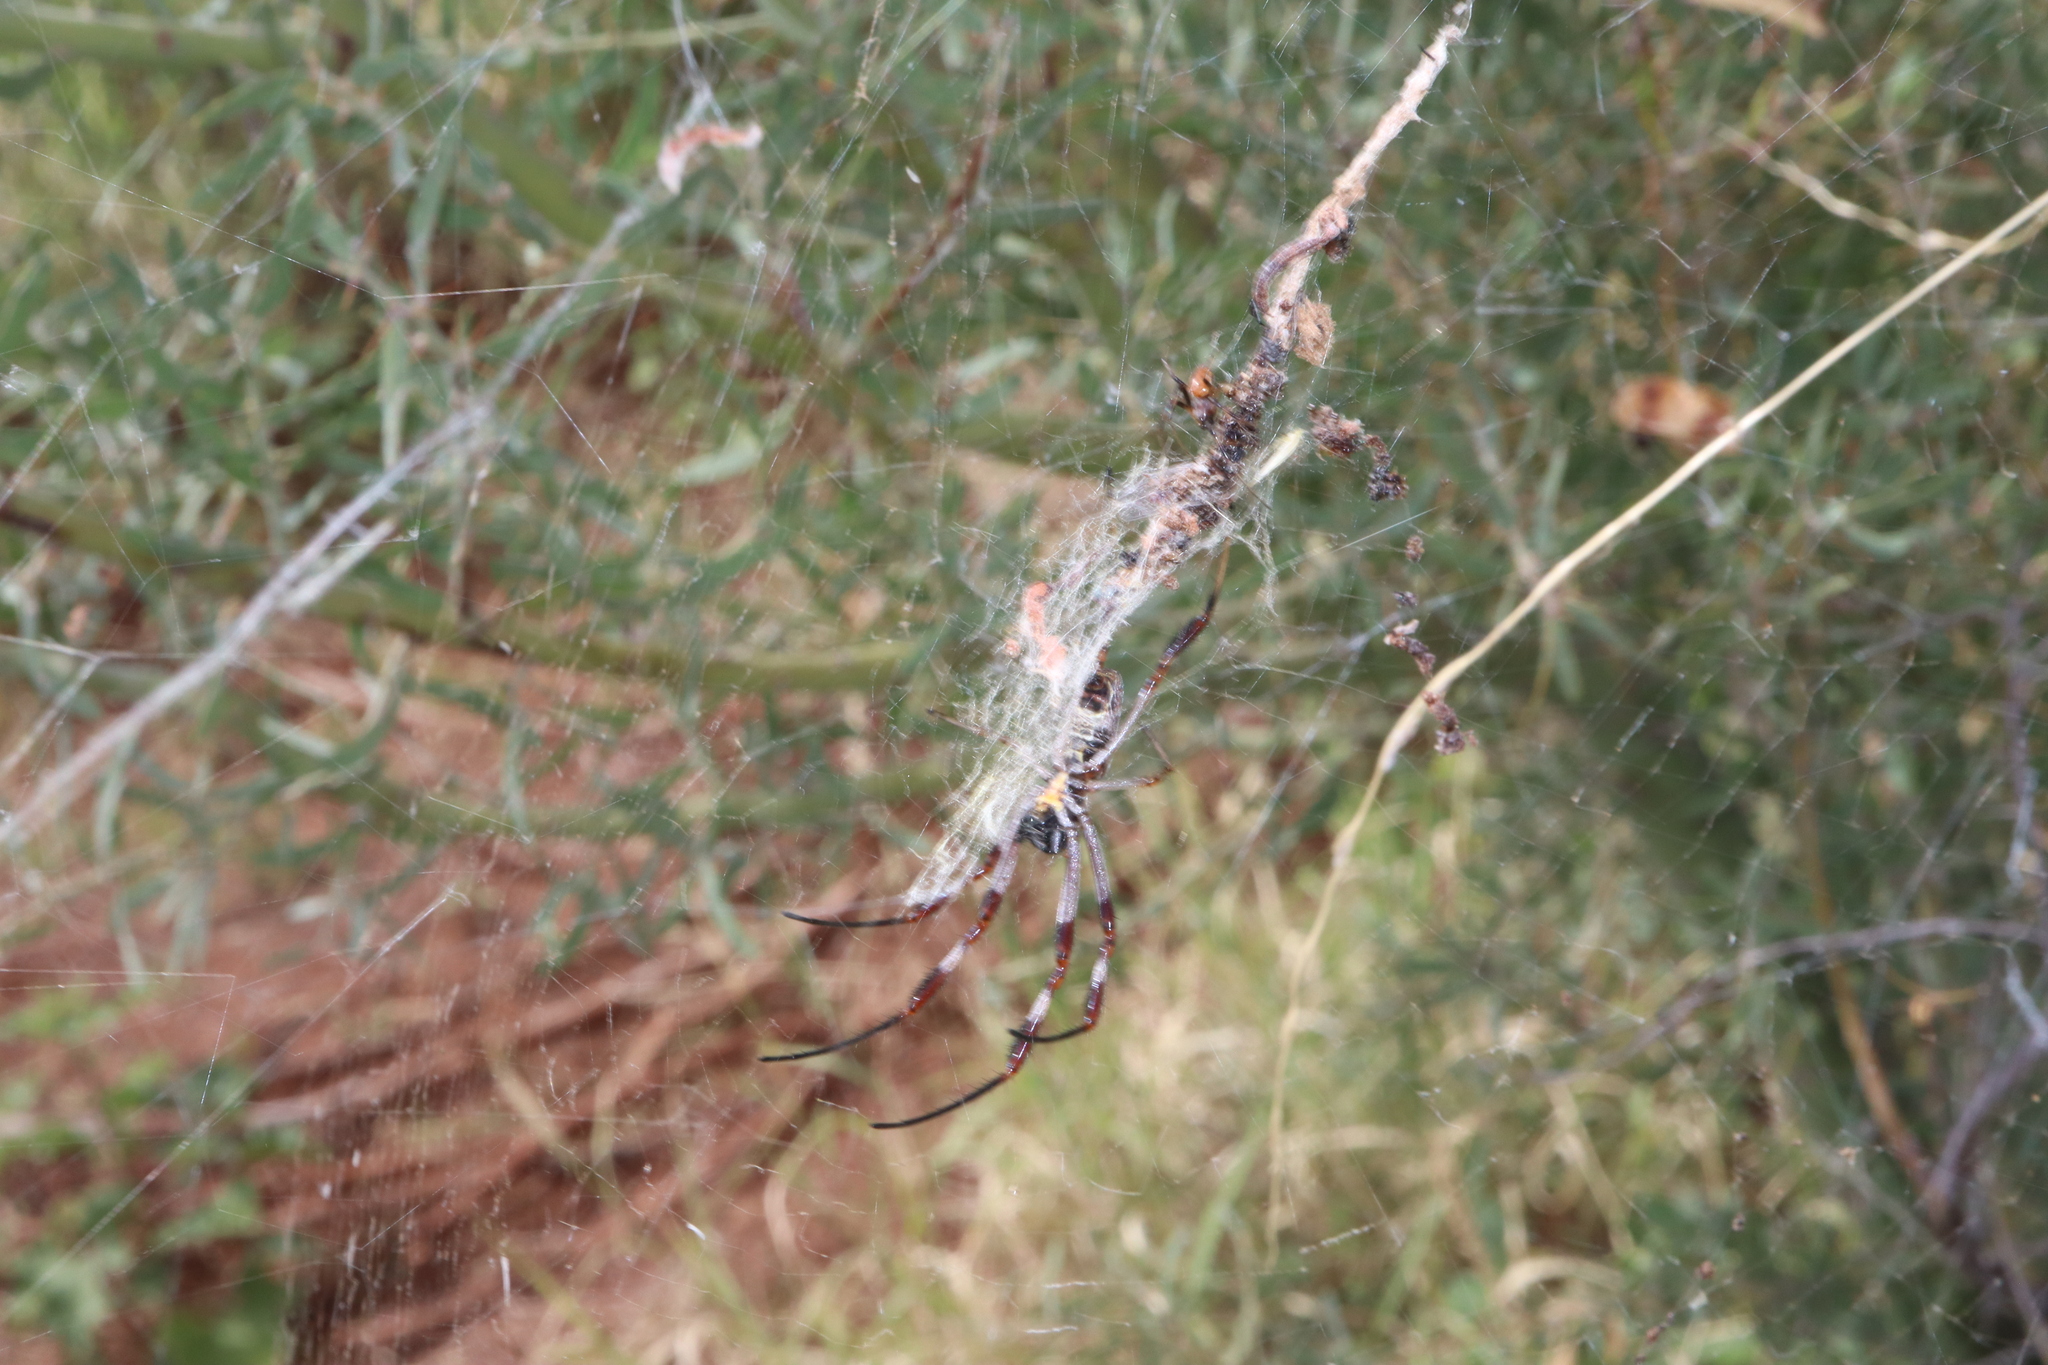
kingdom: Animalia
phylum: Arthropoda
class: Arachnida
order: Araneae
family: Araneidae
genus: Trichonephila
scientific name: Trichonephila edulis
